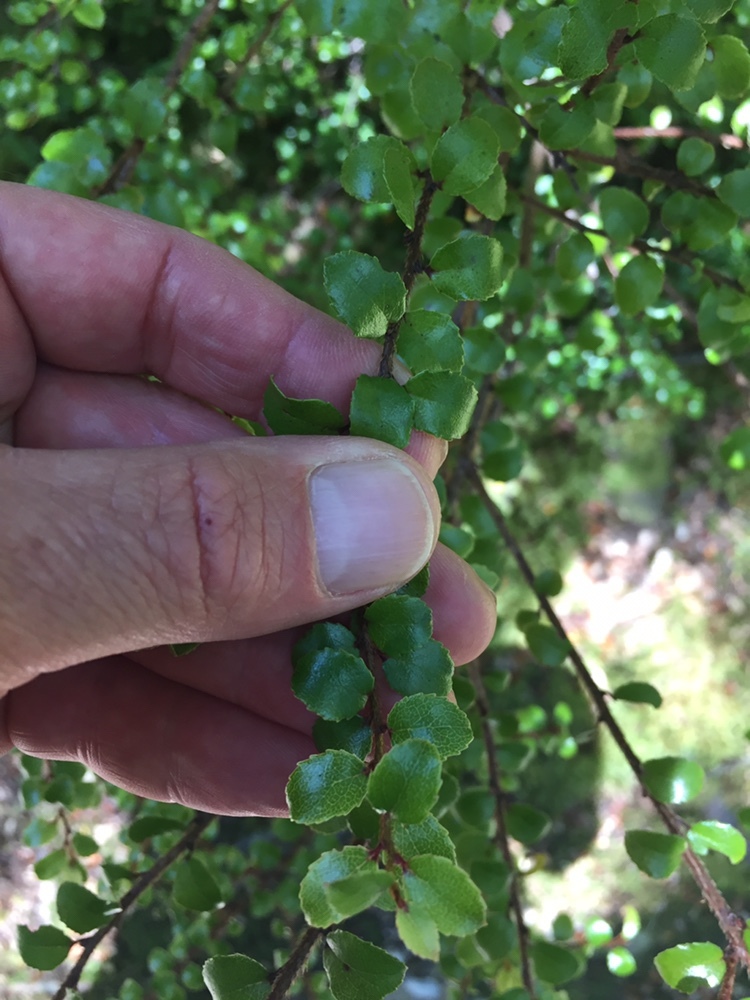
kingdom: Plantae
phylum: Tracheophyta
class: Magnoliopsida
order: Ericales
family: Ericaceae
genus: Gaultheria
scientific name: Gaultheria antipoda
